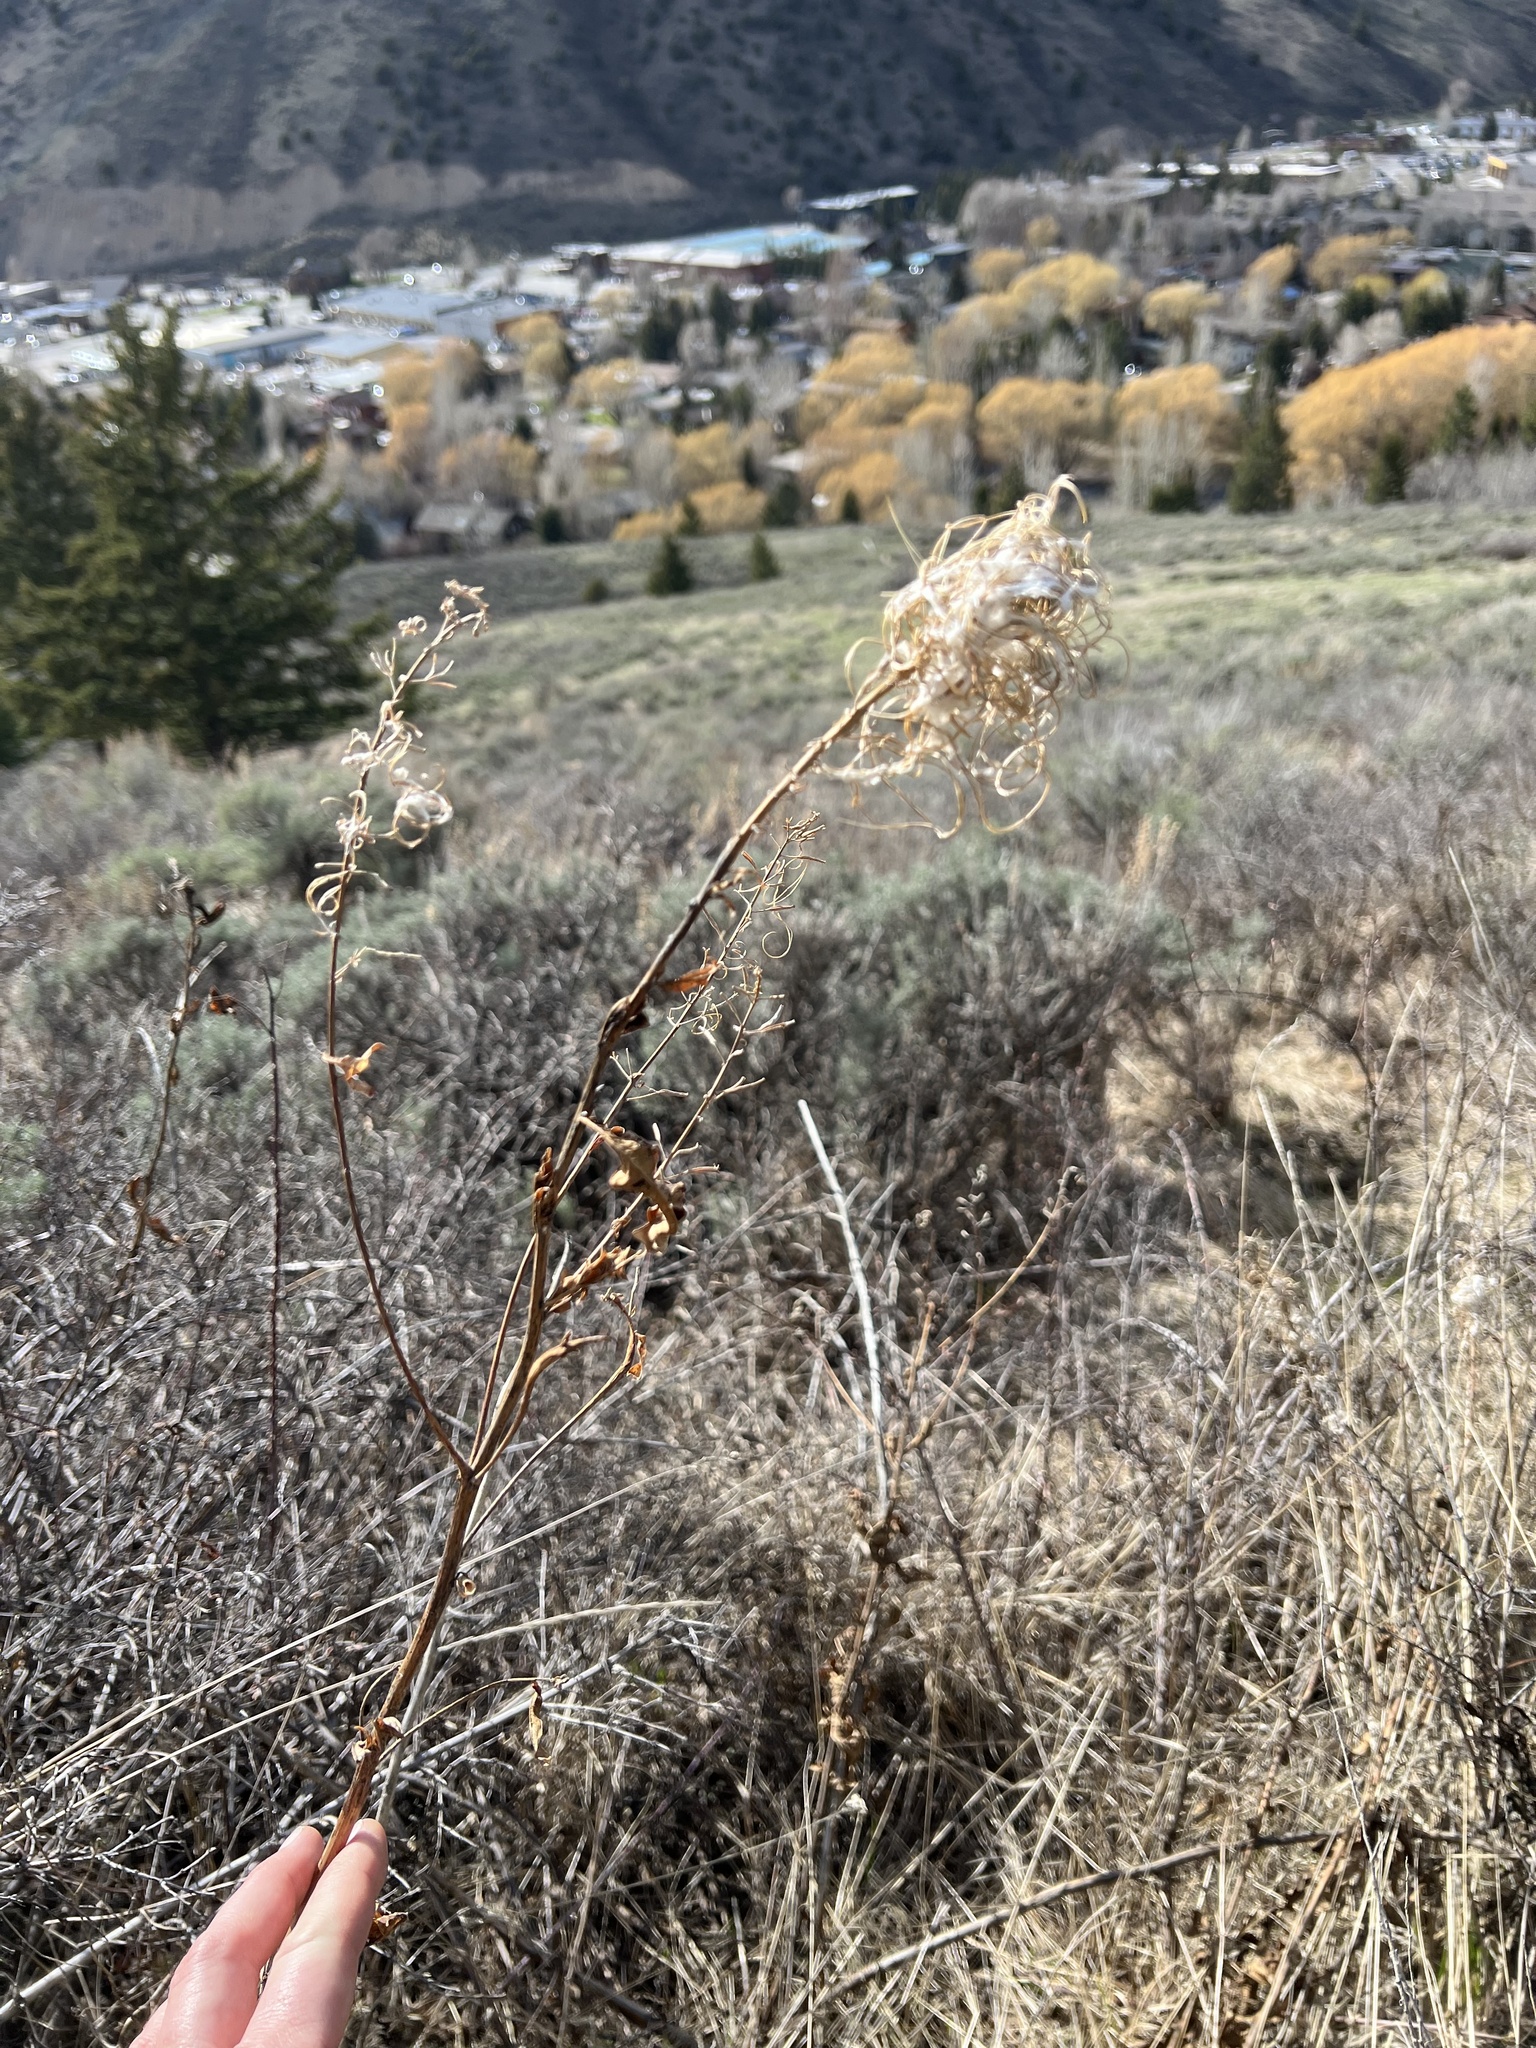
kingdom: Plantae
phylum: Tracheophyta
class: Magnoliopsida
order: Myrtales
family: Onagraceae
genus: Chamaenerion
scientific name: Chamaenerion angustifolium
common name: Fireweed
